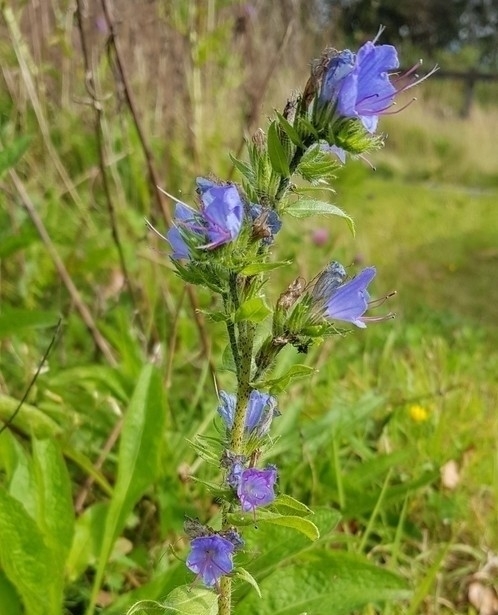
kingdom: Plantae
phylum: Tracheophyta
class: Magnoliopsida
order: Boraginales
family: Boraginaceae
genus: Echium
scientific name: Echium vulgare
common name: Common viper's bugloss
